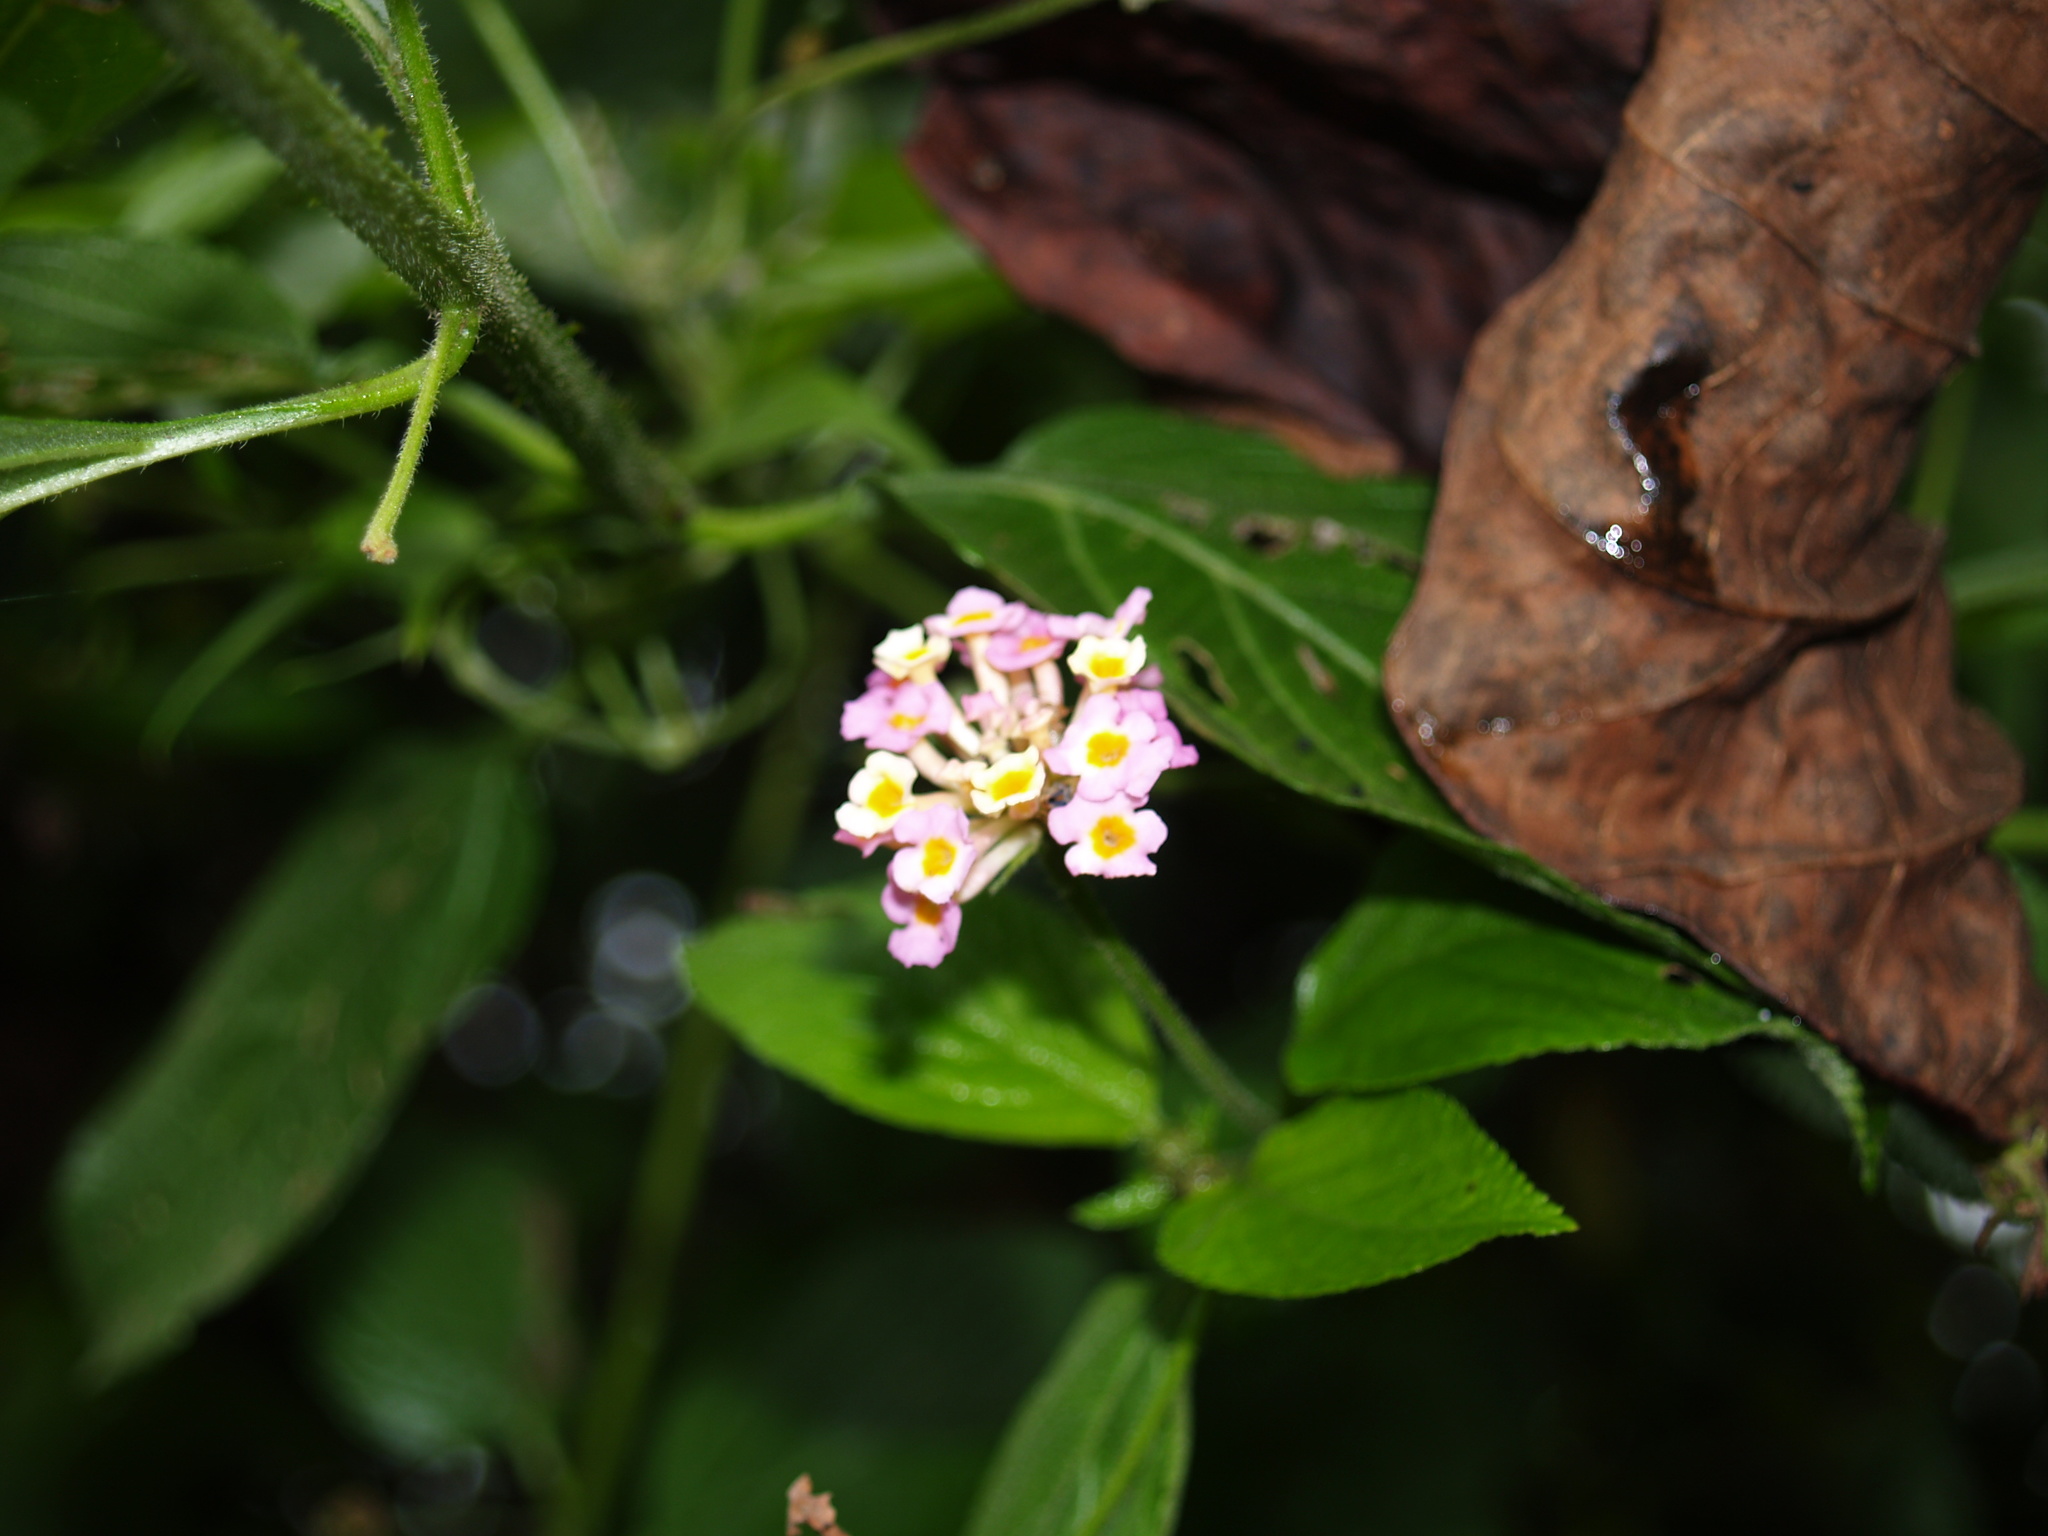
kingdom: Plantae
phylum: Tracheophyta
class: Magnoliopsida
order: Lamiales
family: Verbenaceae
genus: Lantana
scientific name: Lantana camara
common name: Lantana
